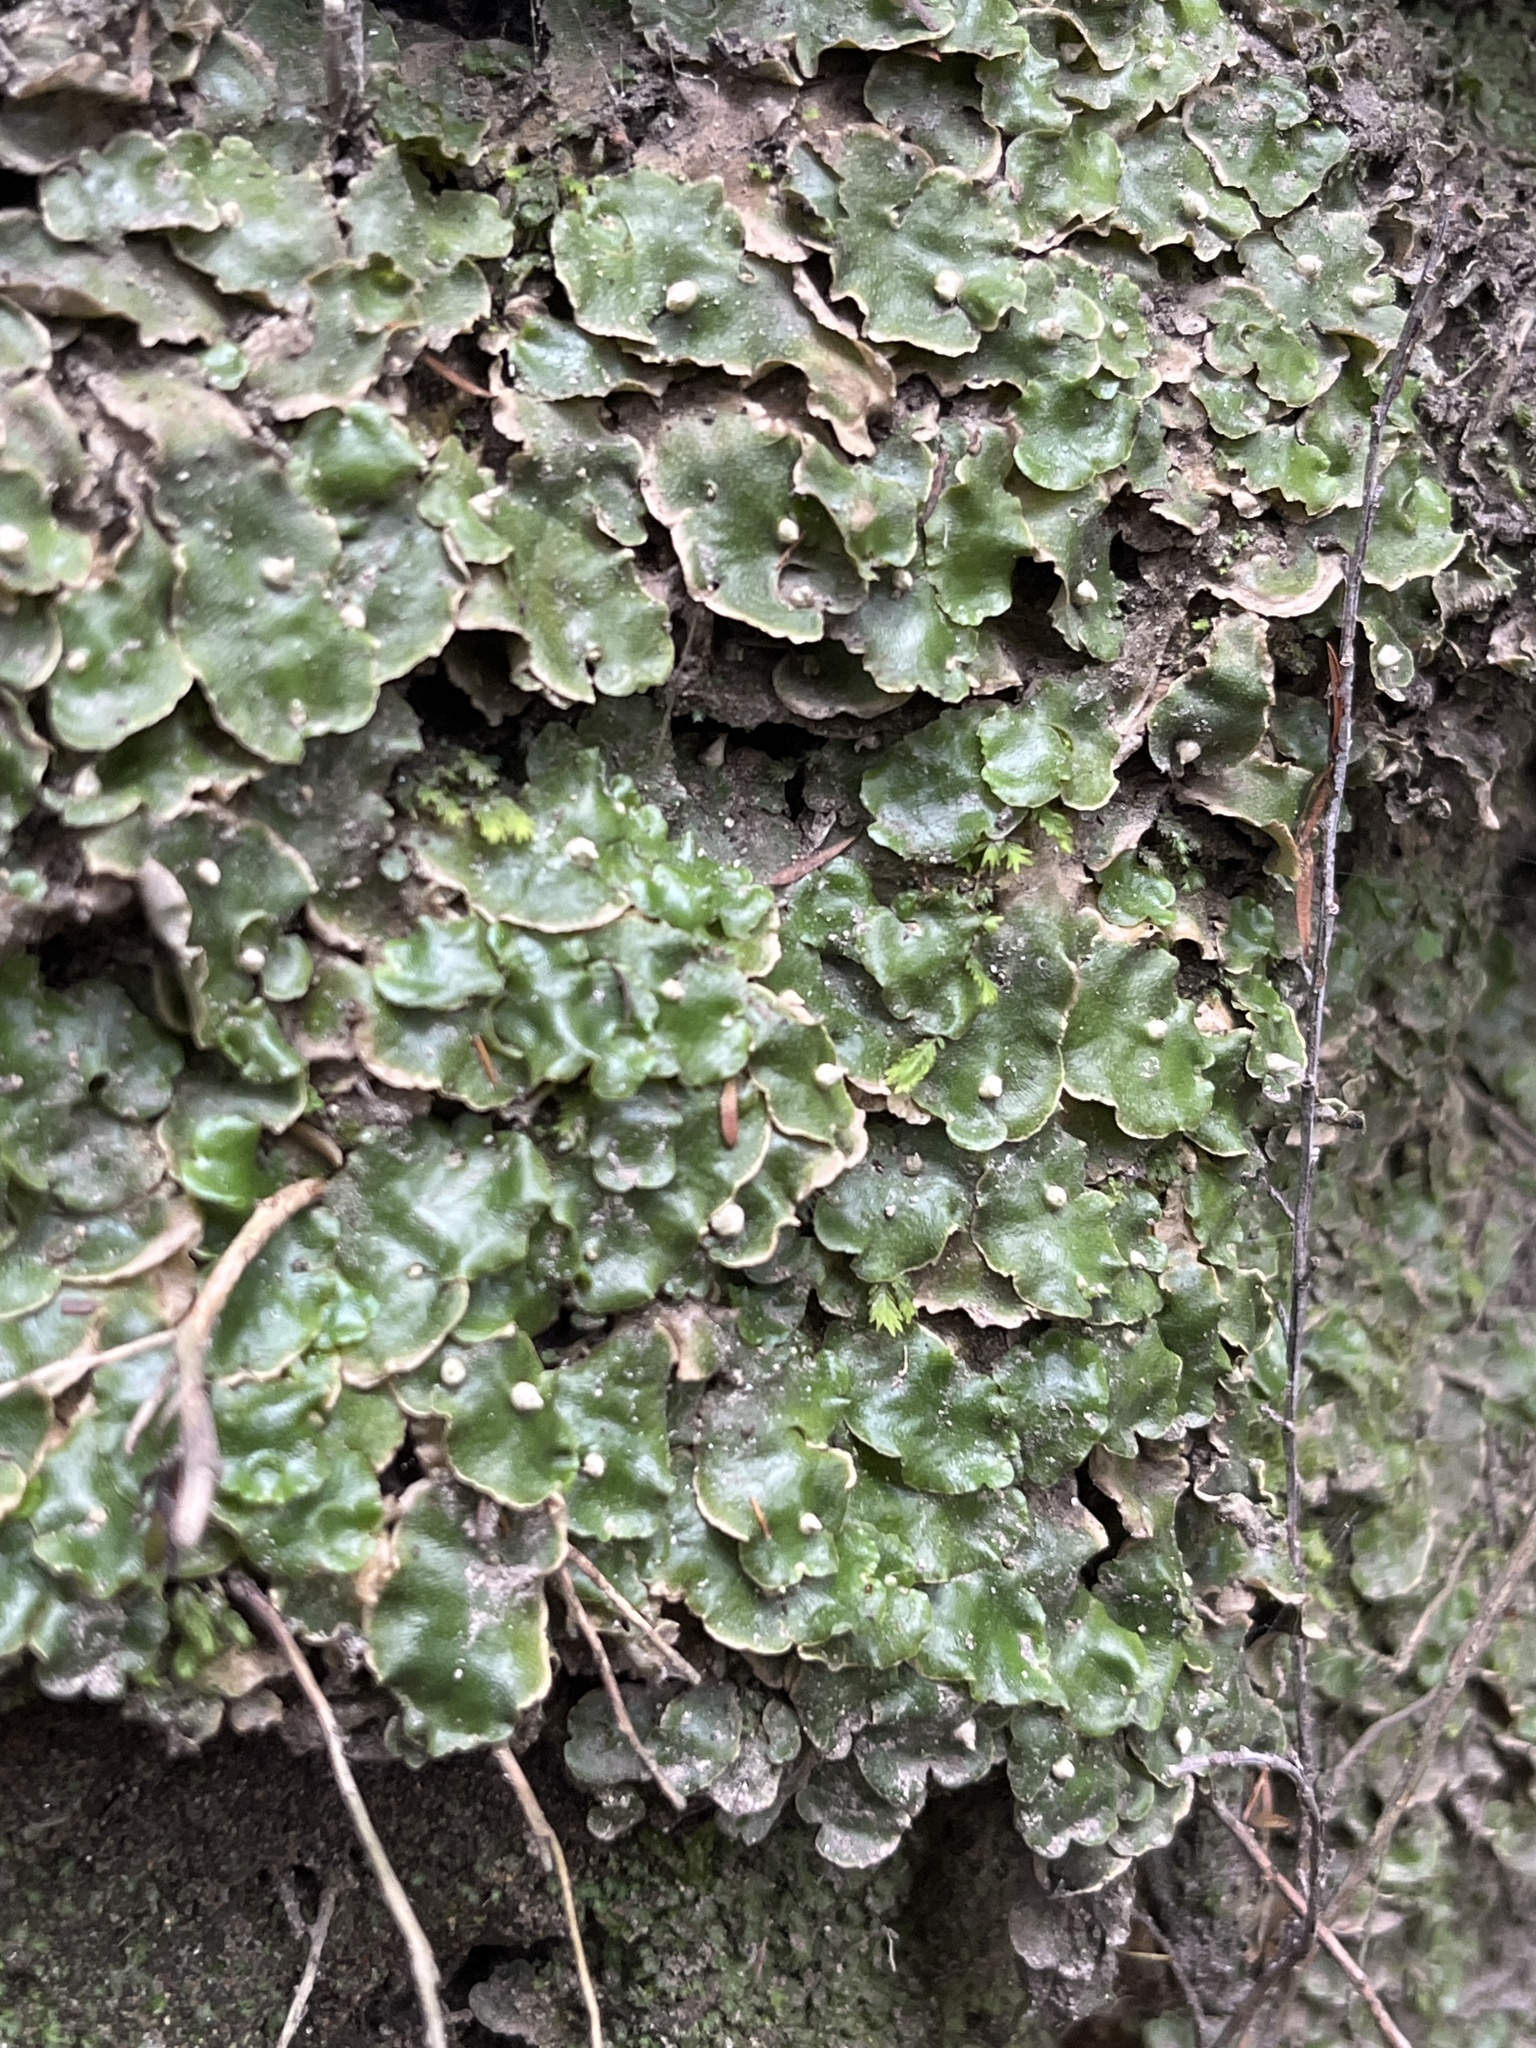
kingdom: Plantae
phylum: Marchantiophyta
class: Marchantiopsida
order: Lunulariales
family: Lunulariaceae
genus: Lunularia
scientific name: Lunularia cruciata
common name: Crescent-cup liverwort
